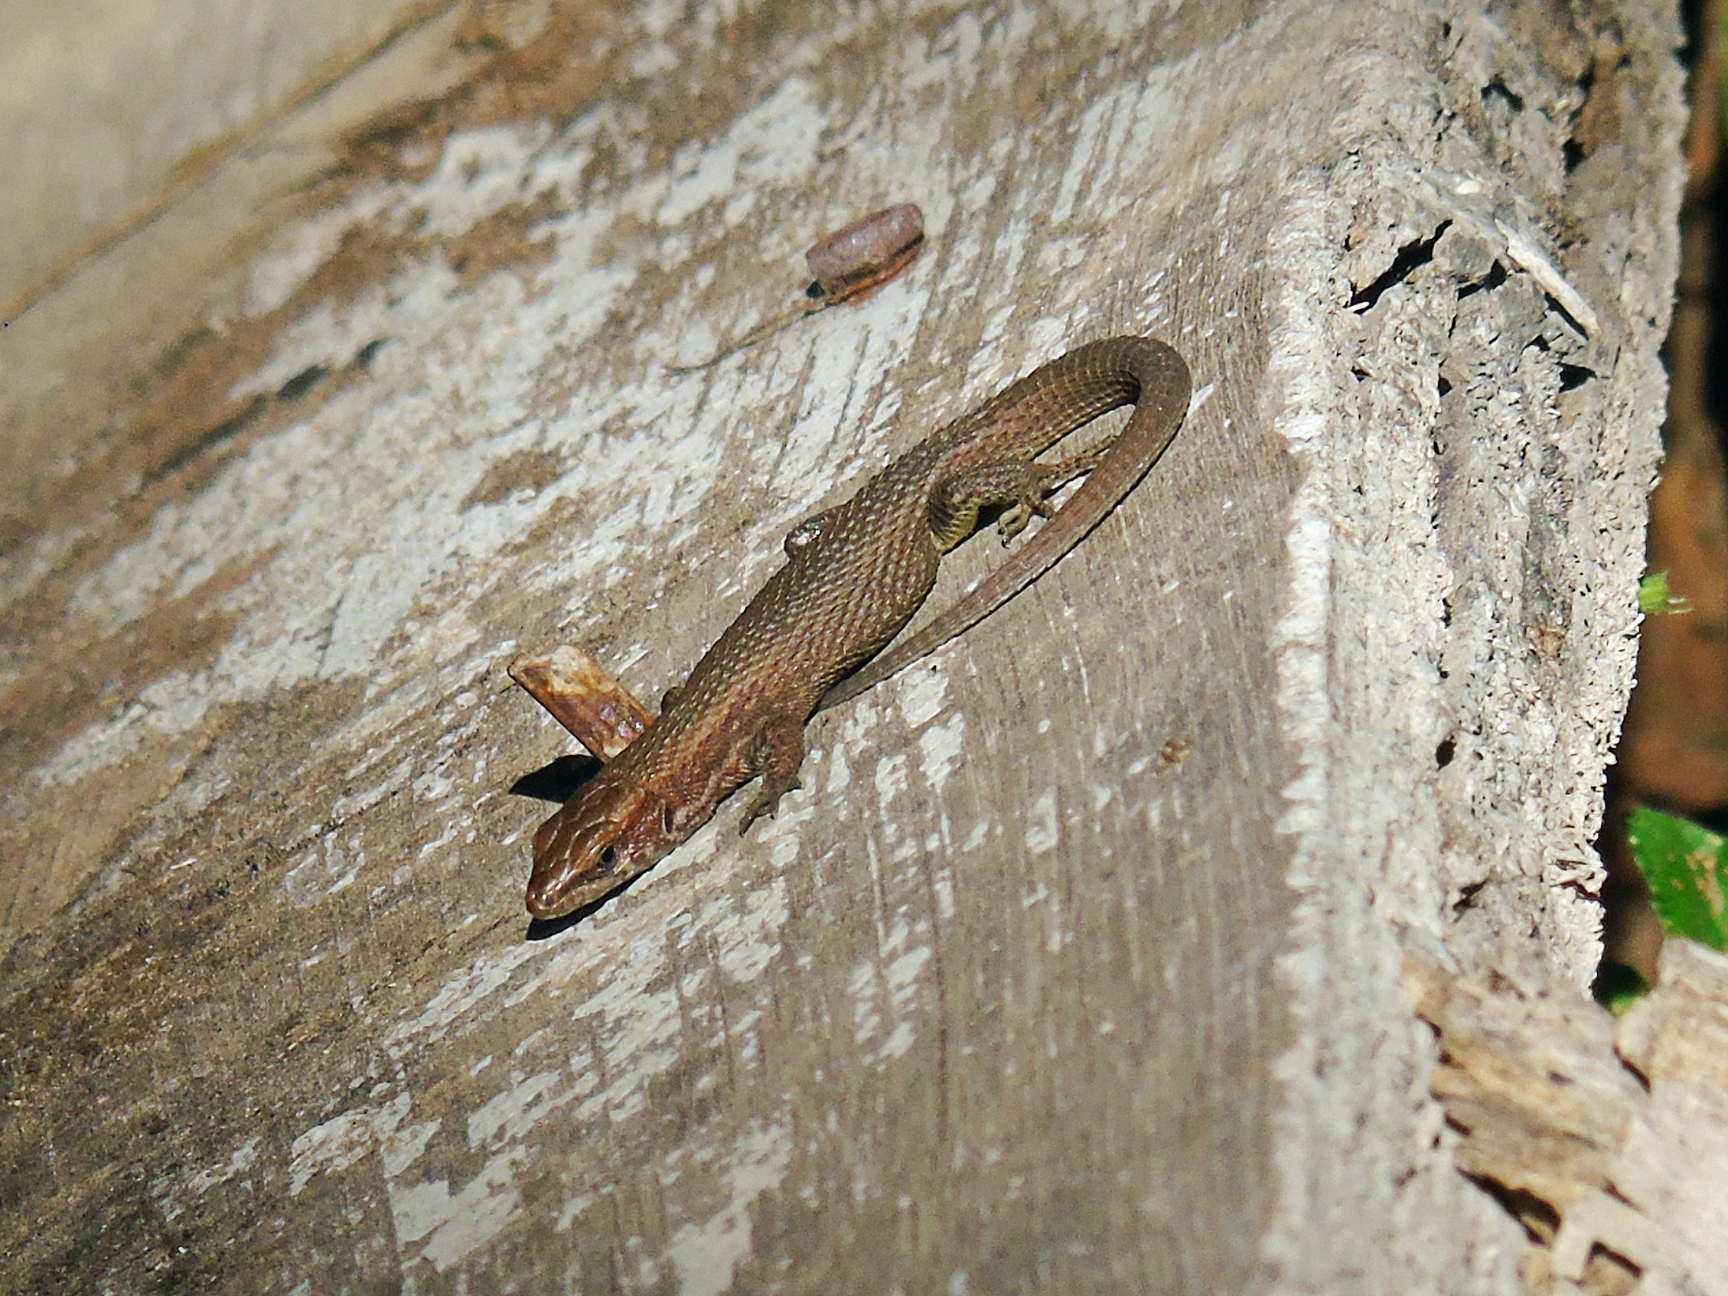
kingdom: Animalia
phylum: Chordata
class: Squamata
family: Lacertidae
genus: Algyroides
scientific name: Algyroides moreoticus
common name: Greek algyroides
